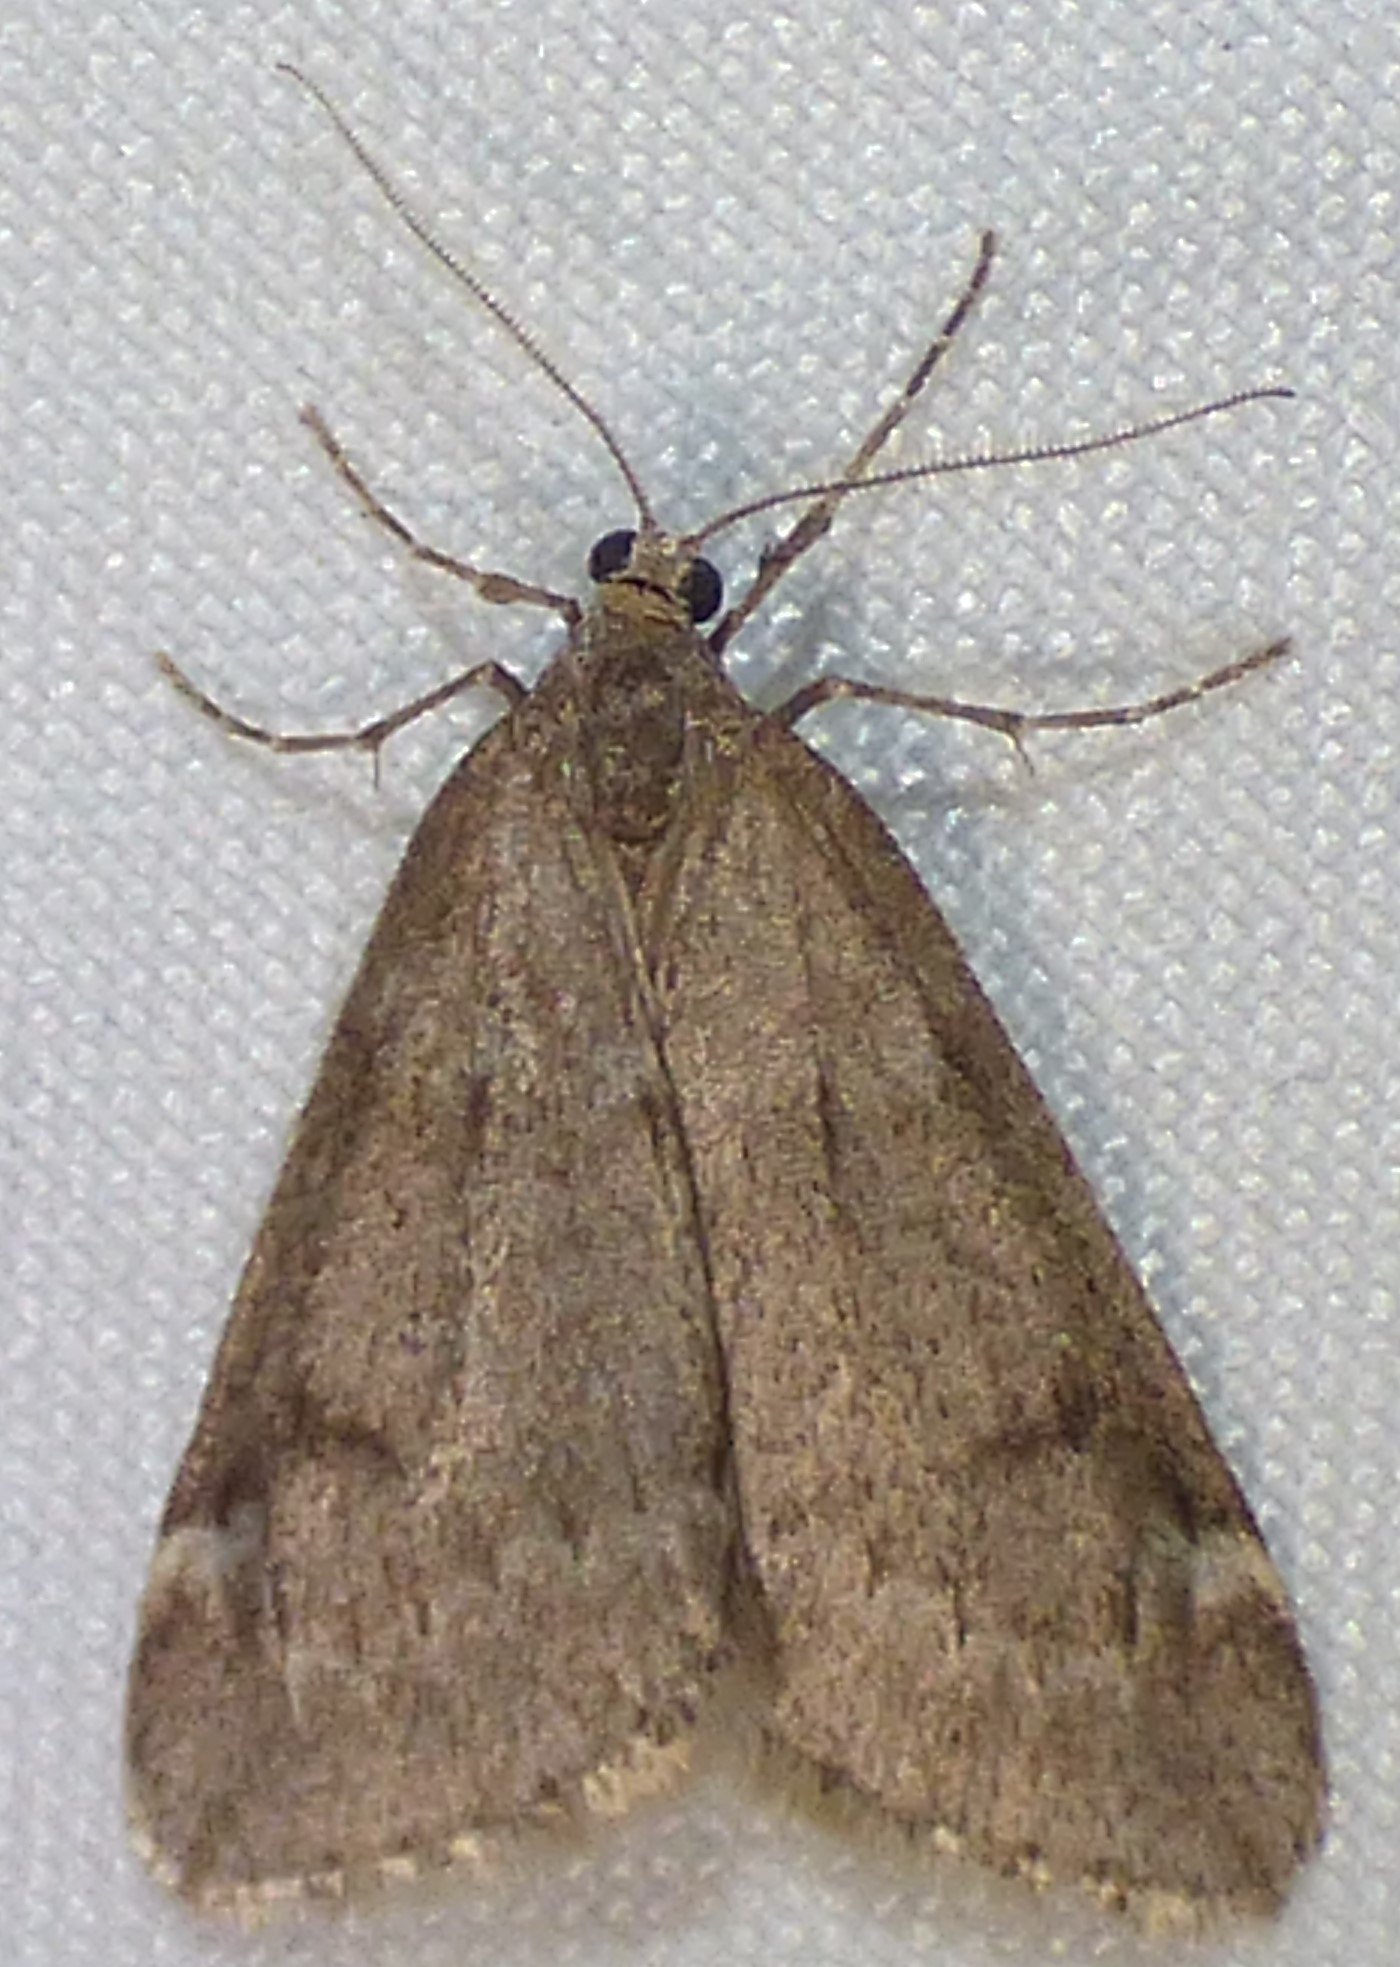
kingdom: Animalia
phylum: Arthropoda
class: Insecta
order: Lepidoptera
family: Geometridae
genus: Alsophila
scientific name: Alsophila pometaria
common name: Fall cankerworm
